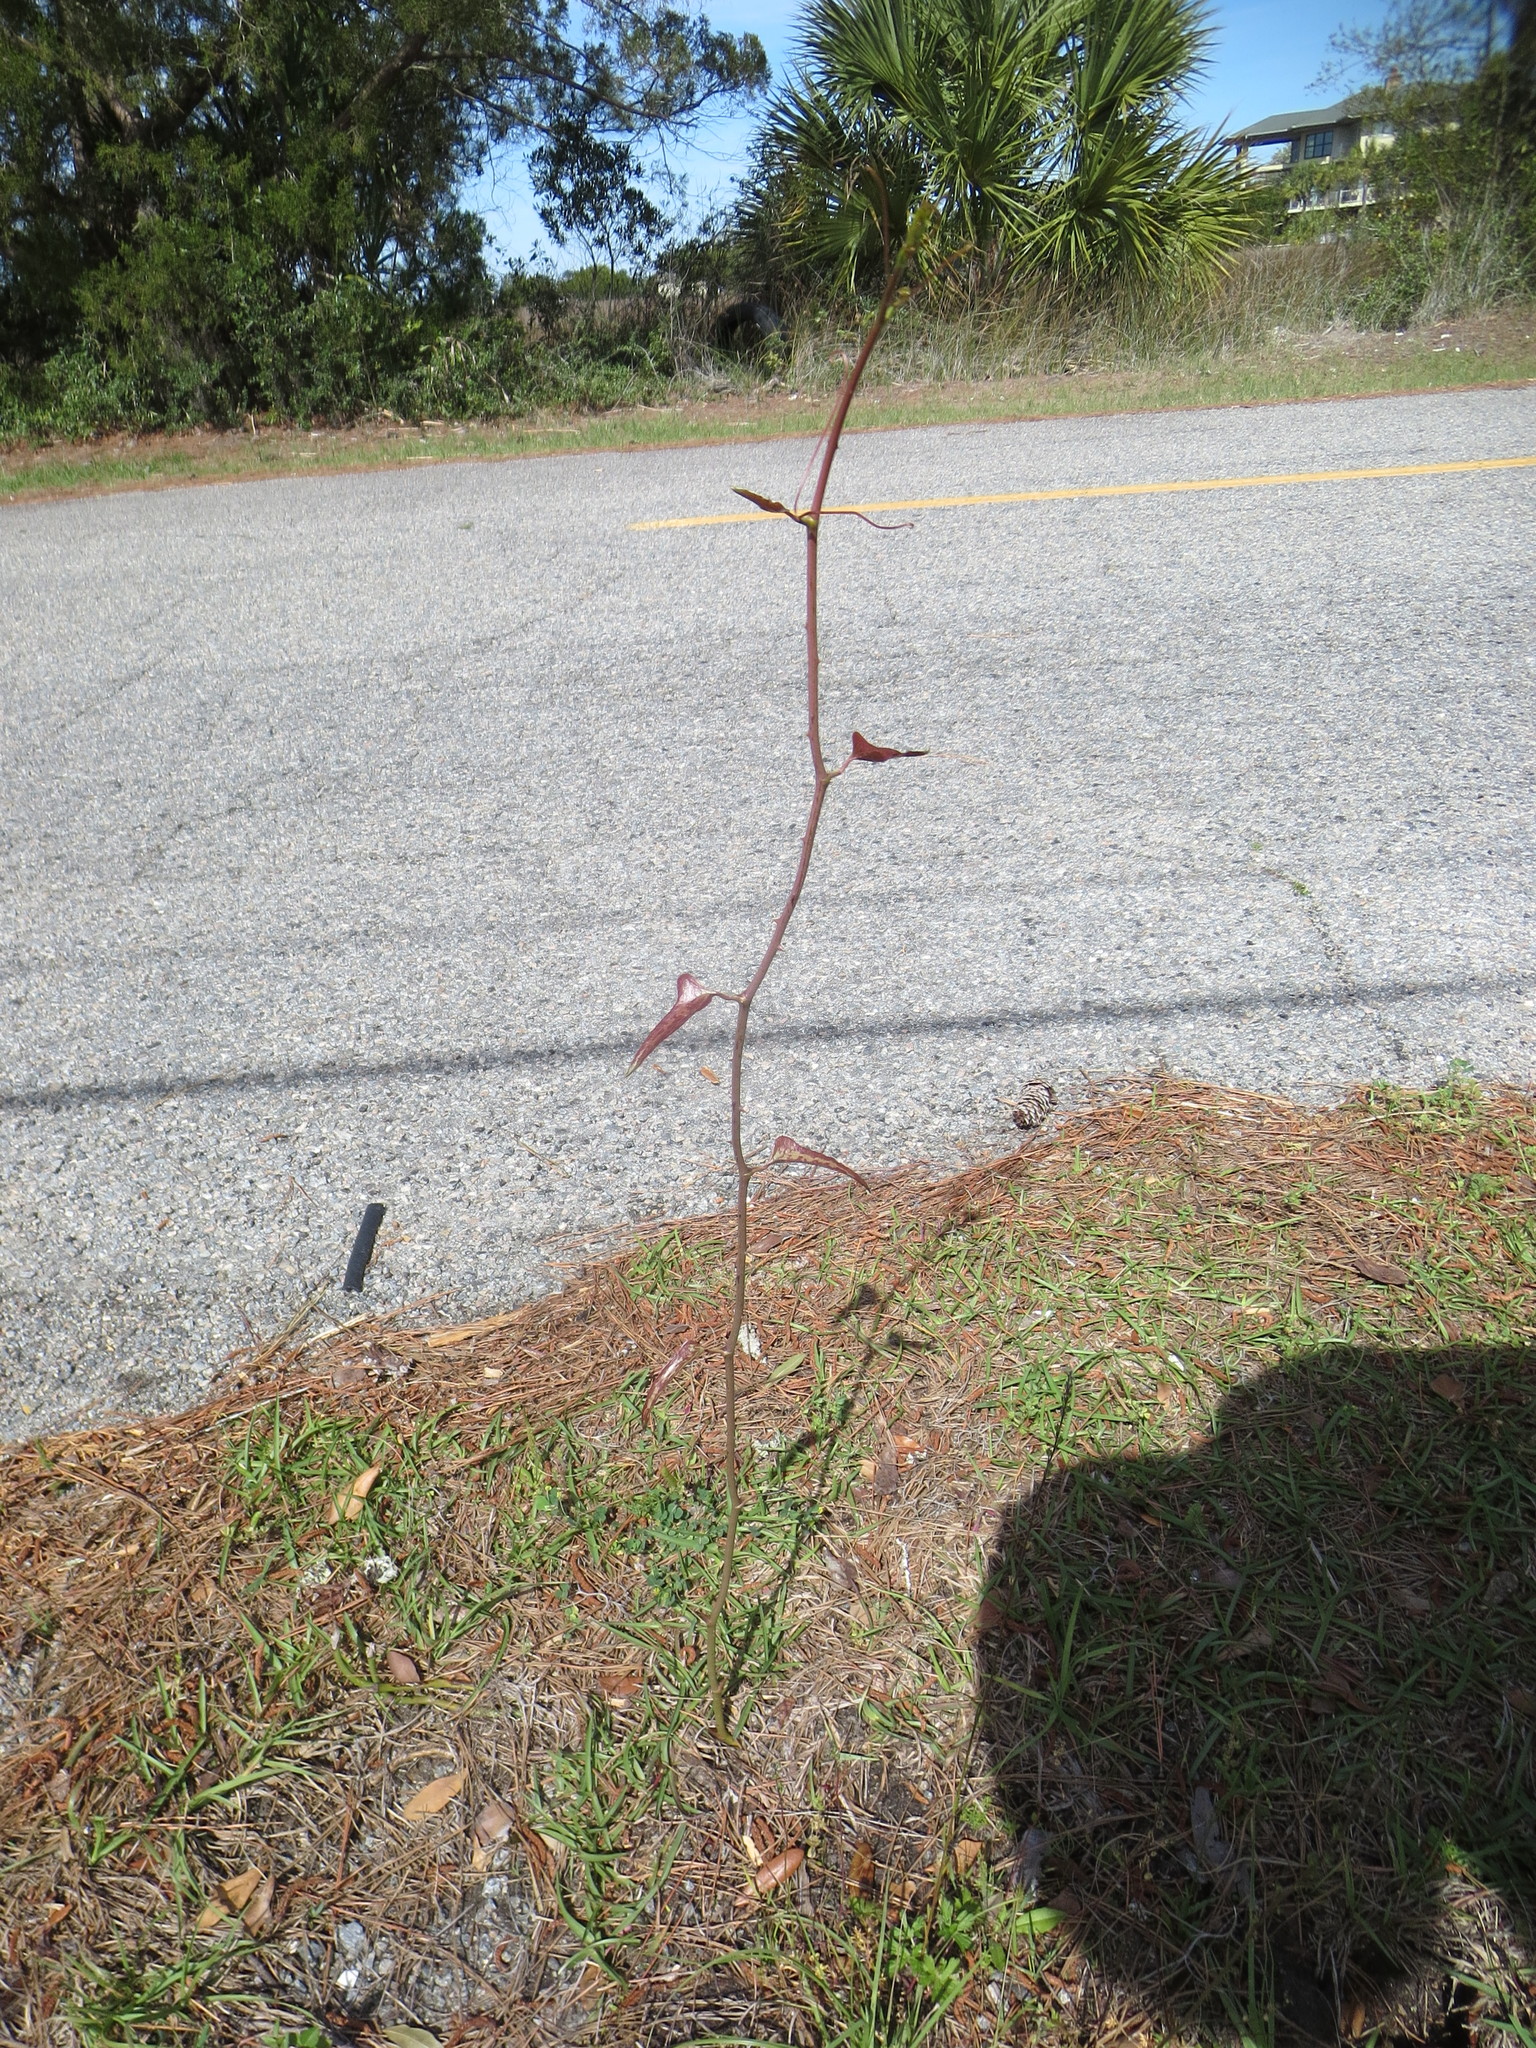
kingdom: Plantae
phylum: Tracheophyta
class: Liliopsida
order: Liliales
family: Smilacaceae
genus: Smilax
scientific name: Smilax bona-nox
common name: Catbrier
